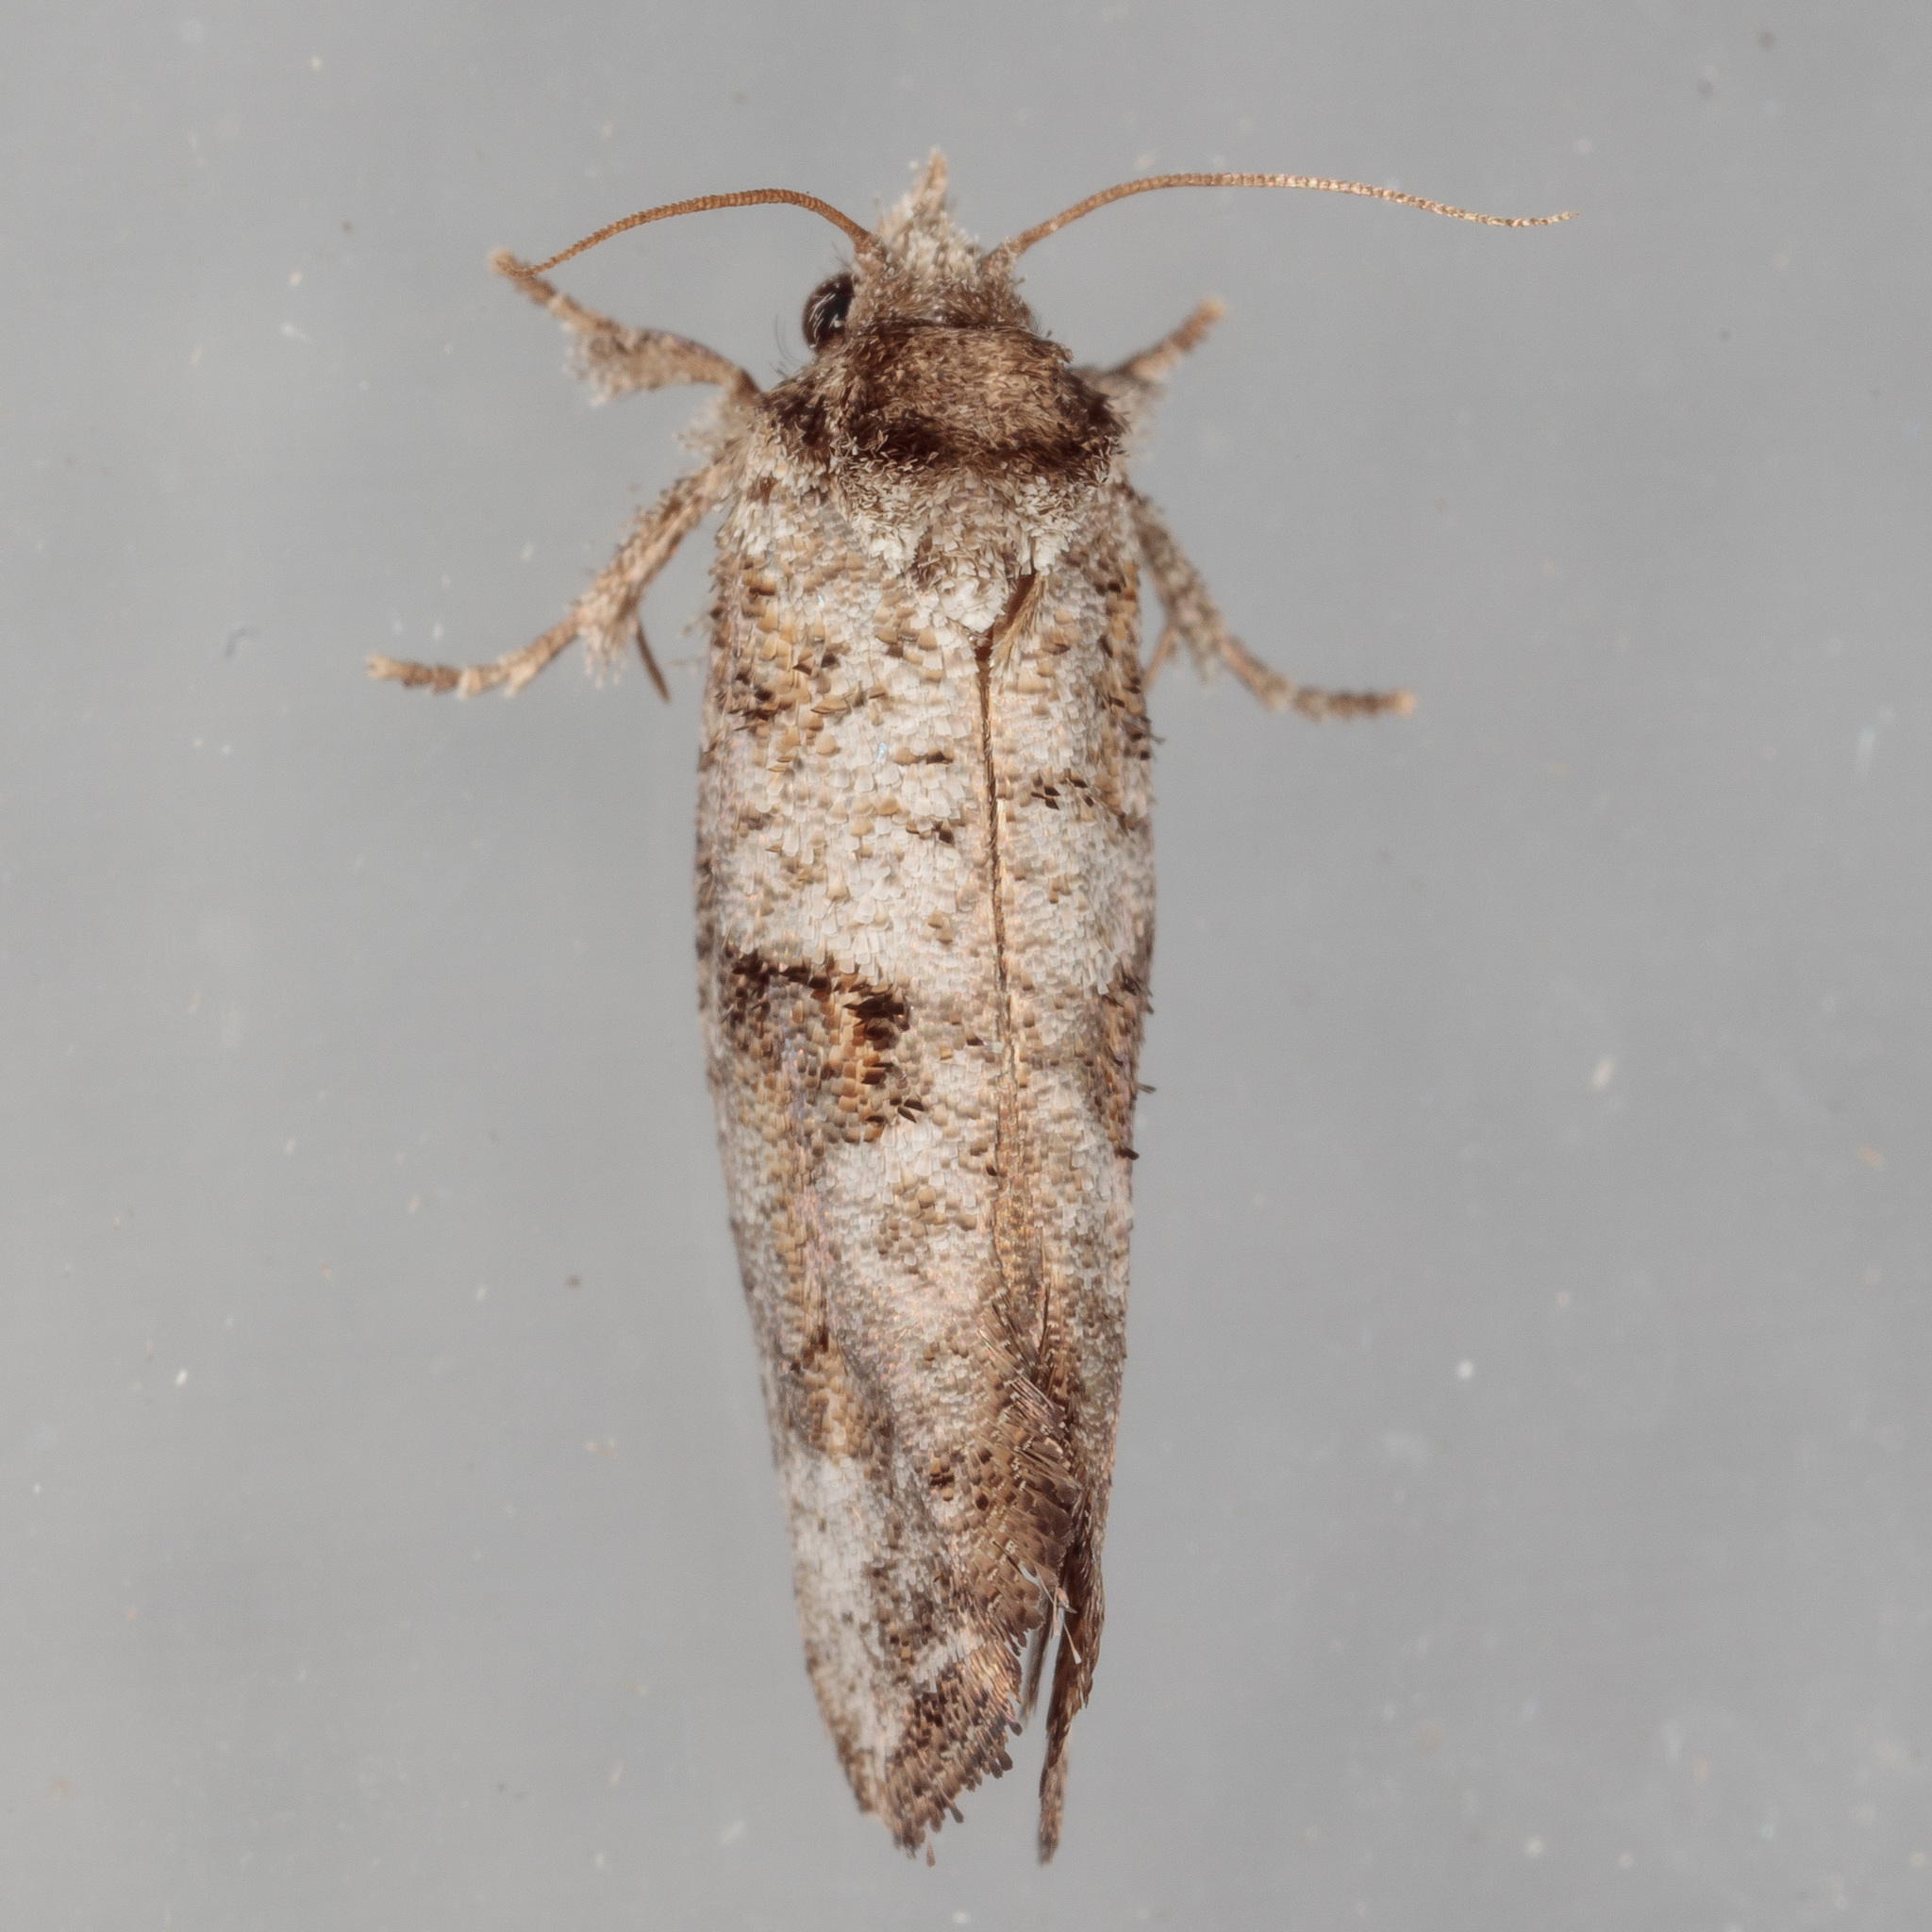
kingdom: Animalia
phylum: Arthropoda
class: Insecta
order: Lepidoptera
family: Tineidae
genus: Acrolophus
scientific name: Acrolophus piger
